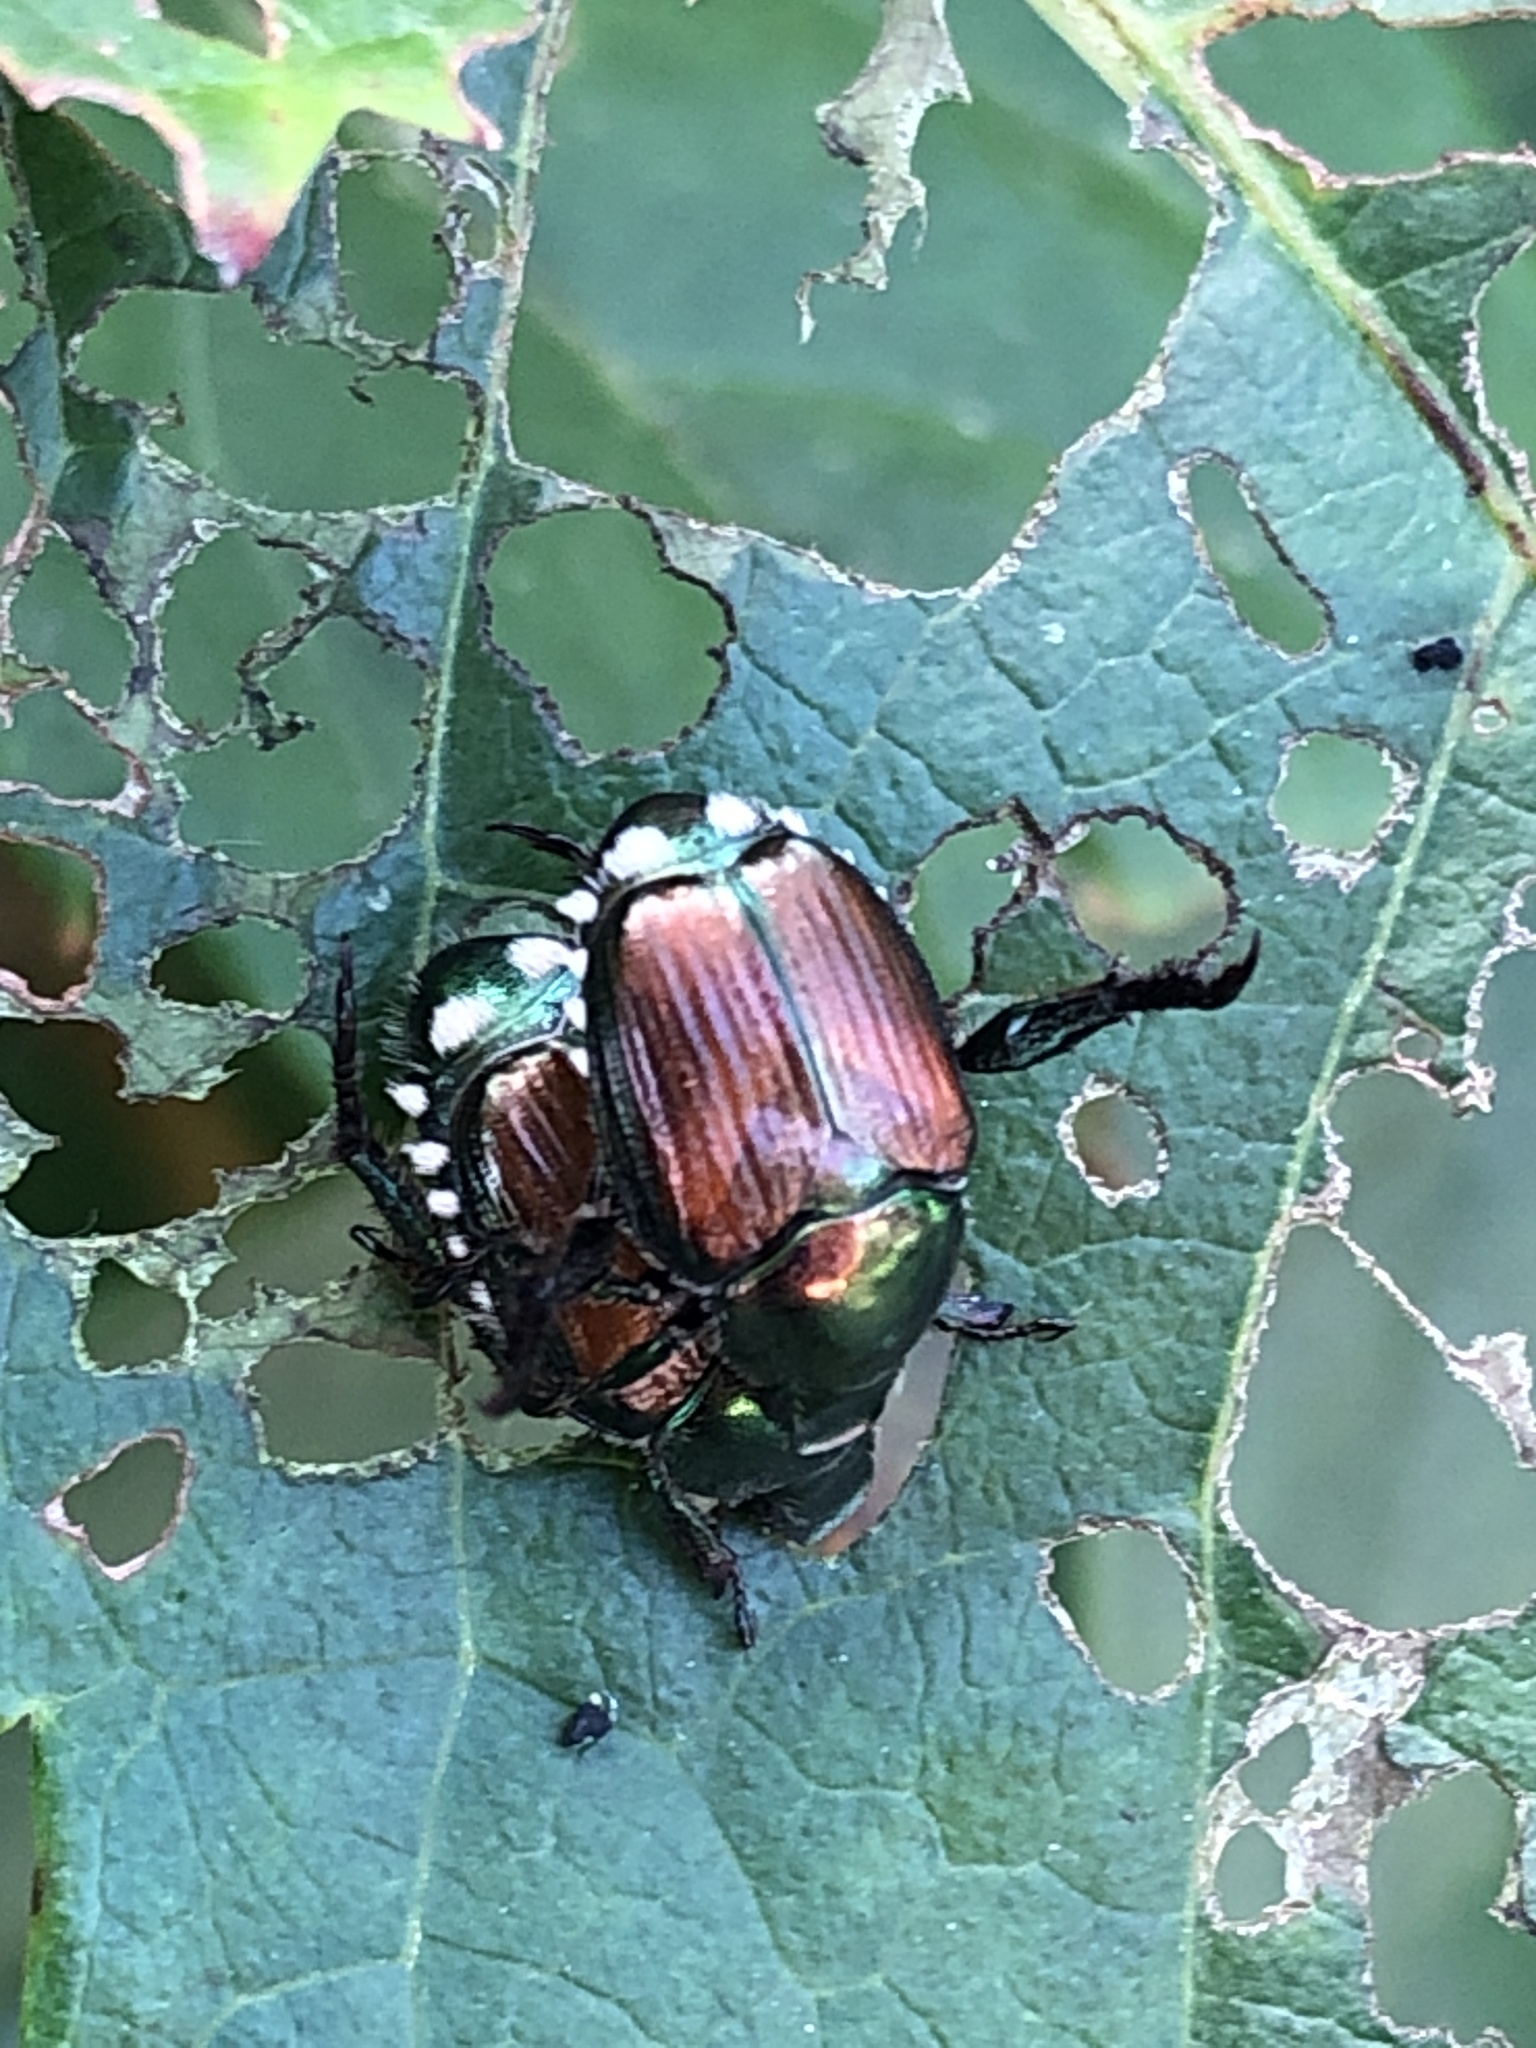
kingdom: Animalia
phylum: Arthropoda
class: Insecta
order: Coleoptera
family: Scarabaeidae
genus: Popillia
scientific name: Popillia japonica
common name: Japanese beetle
